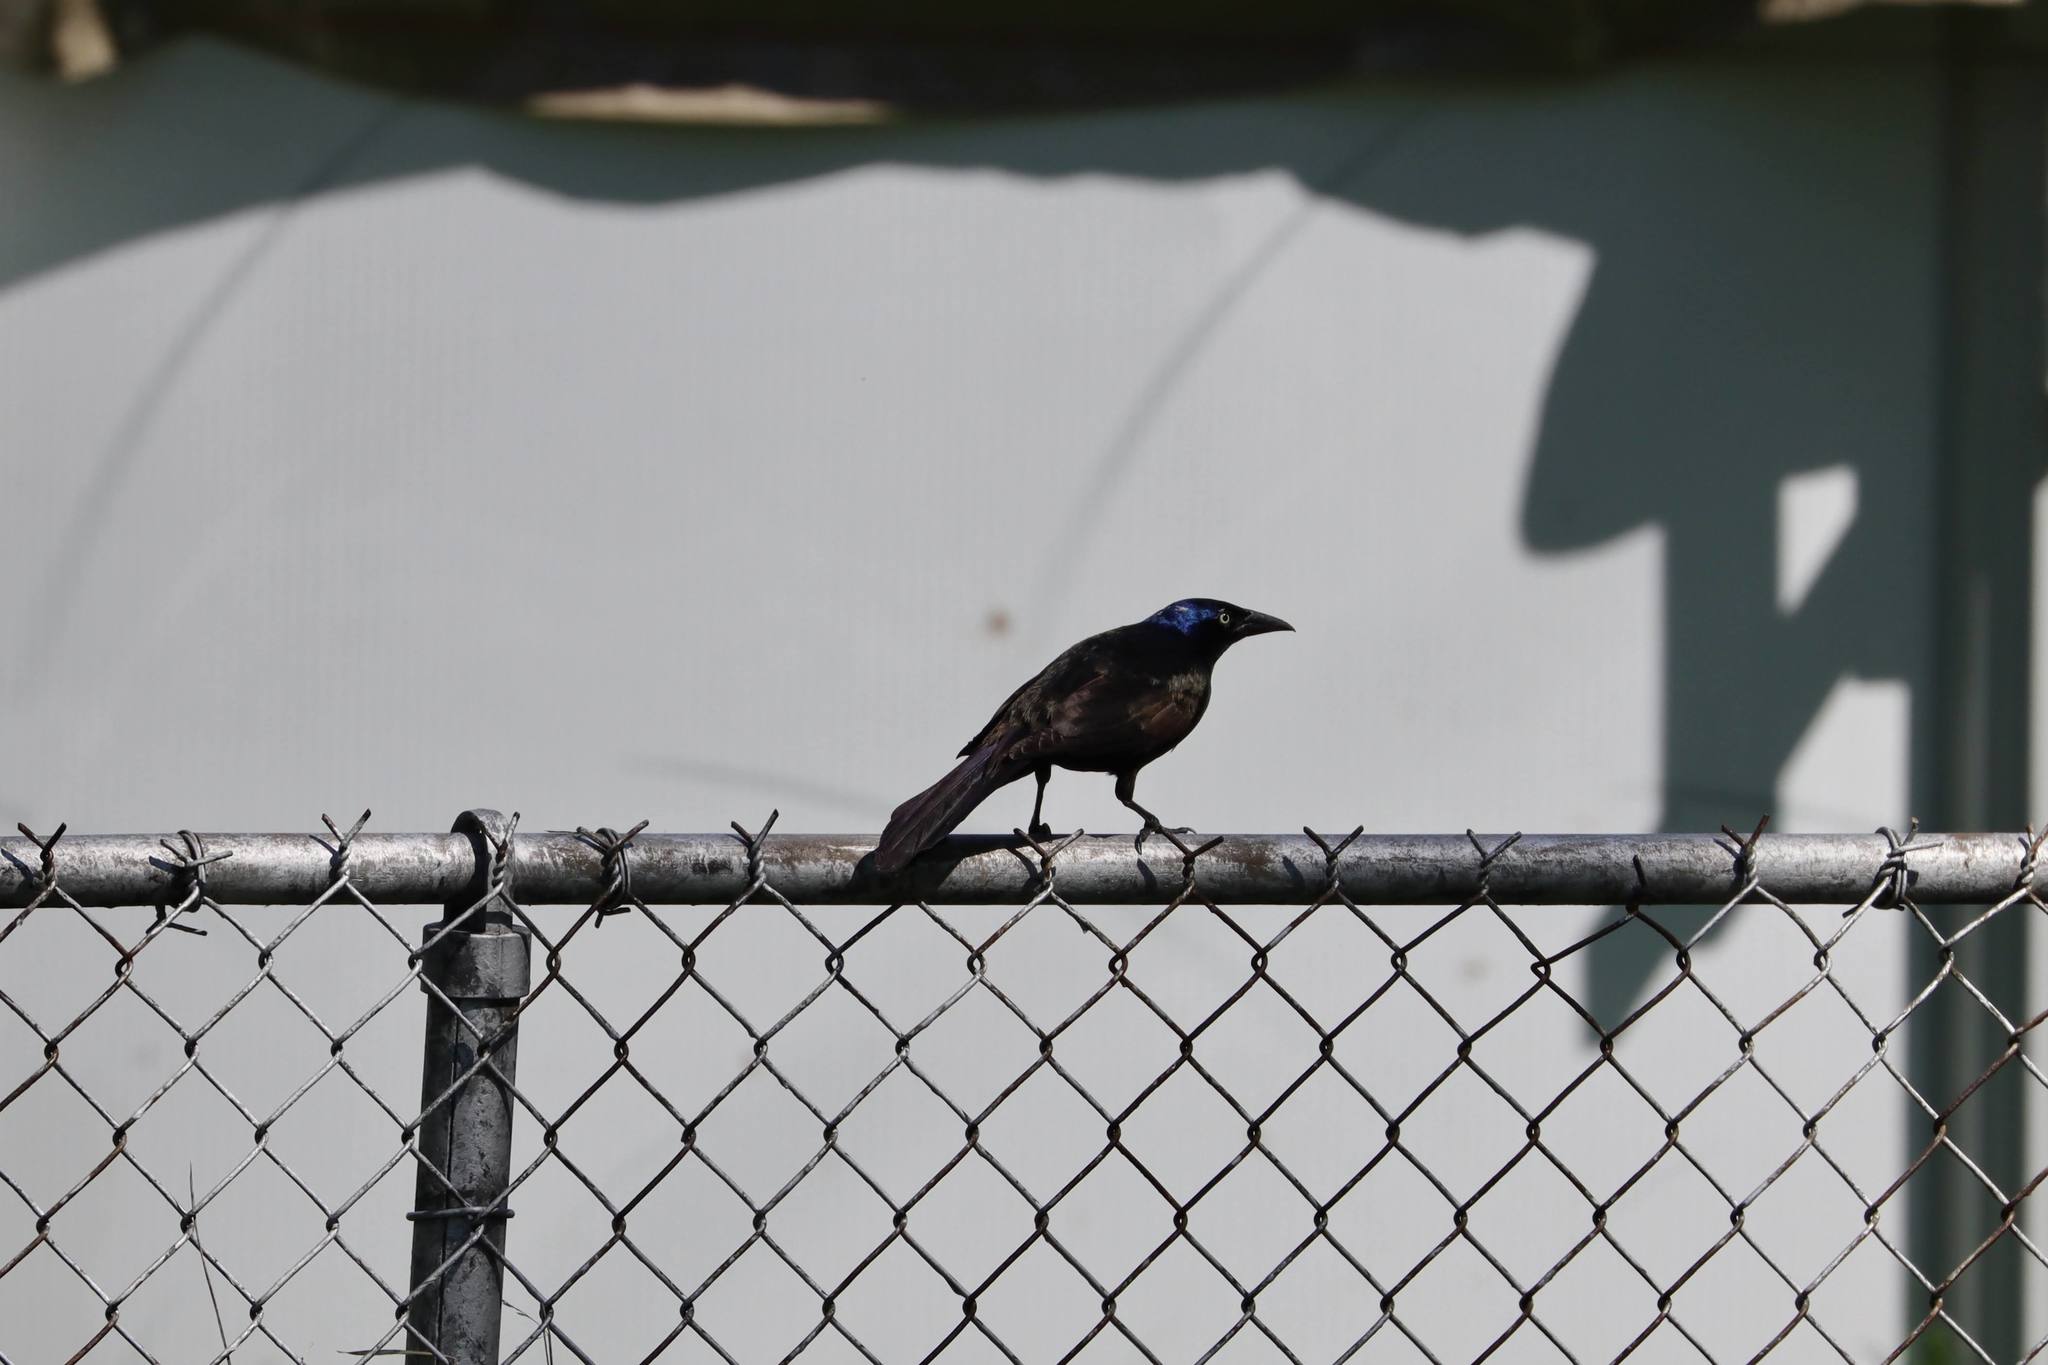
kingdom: Animalia
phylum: Chordata
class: Aves
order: Passeriformes
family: Icteridae
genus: Quiscalus
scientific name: Quiscalus quiscula
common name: Common grackle
